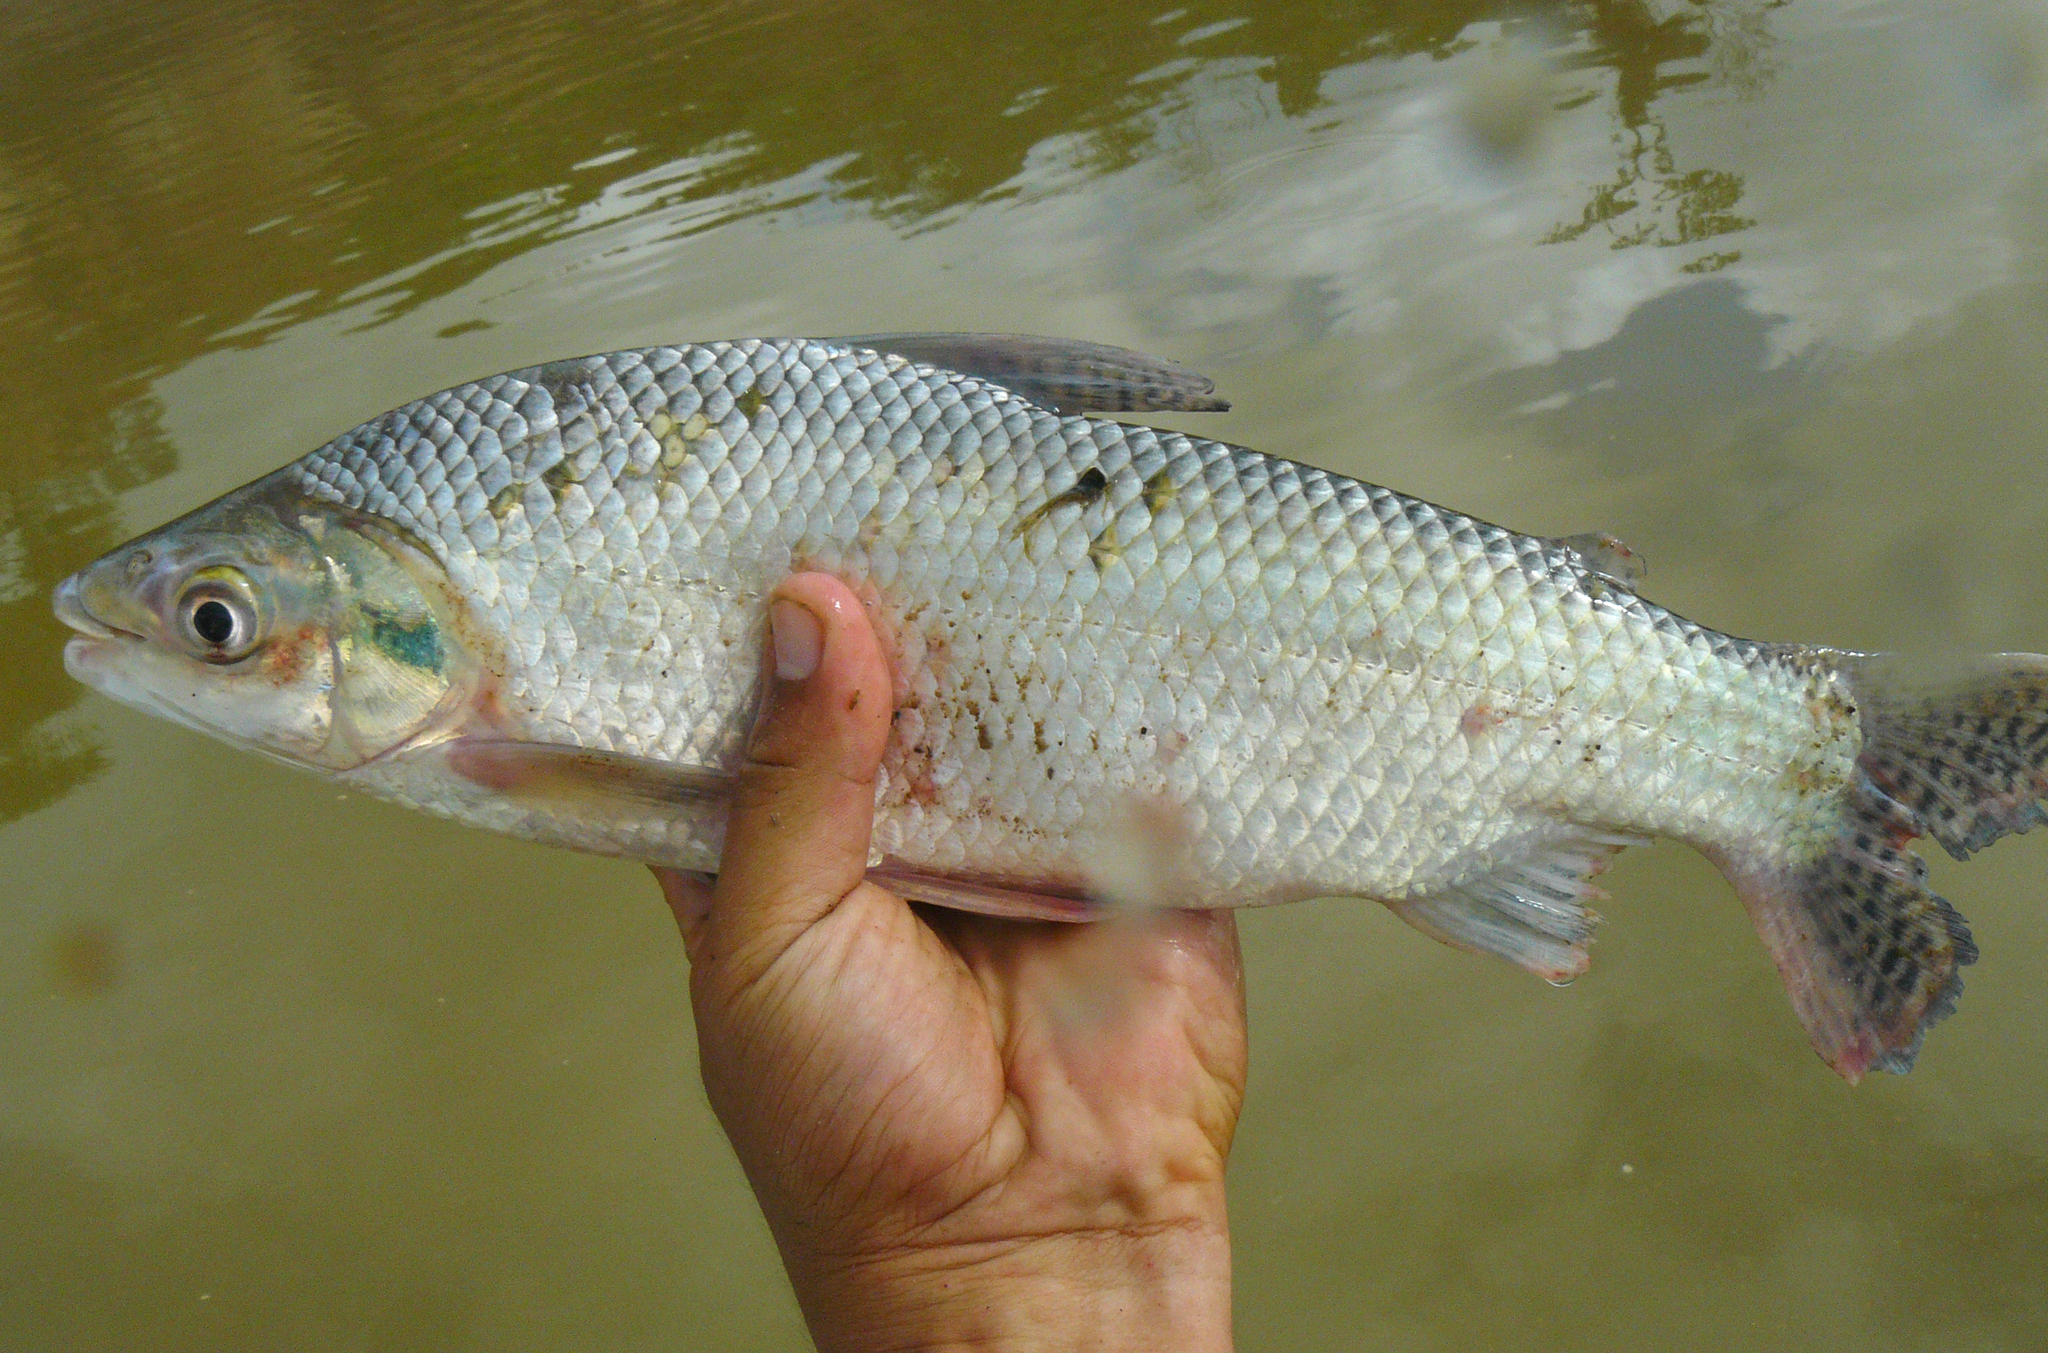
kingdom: Animalia
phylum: Chordata
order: Characiformes
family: Prochilodontidae
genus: Prochilodus
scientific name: Prochilodus nigricans
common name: Black prochilodus
